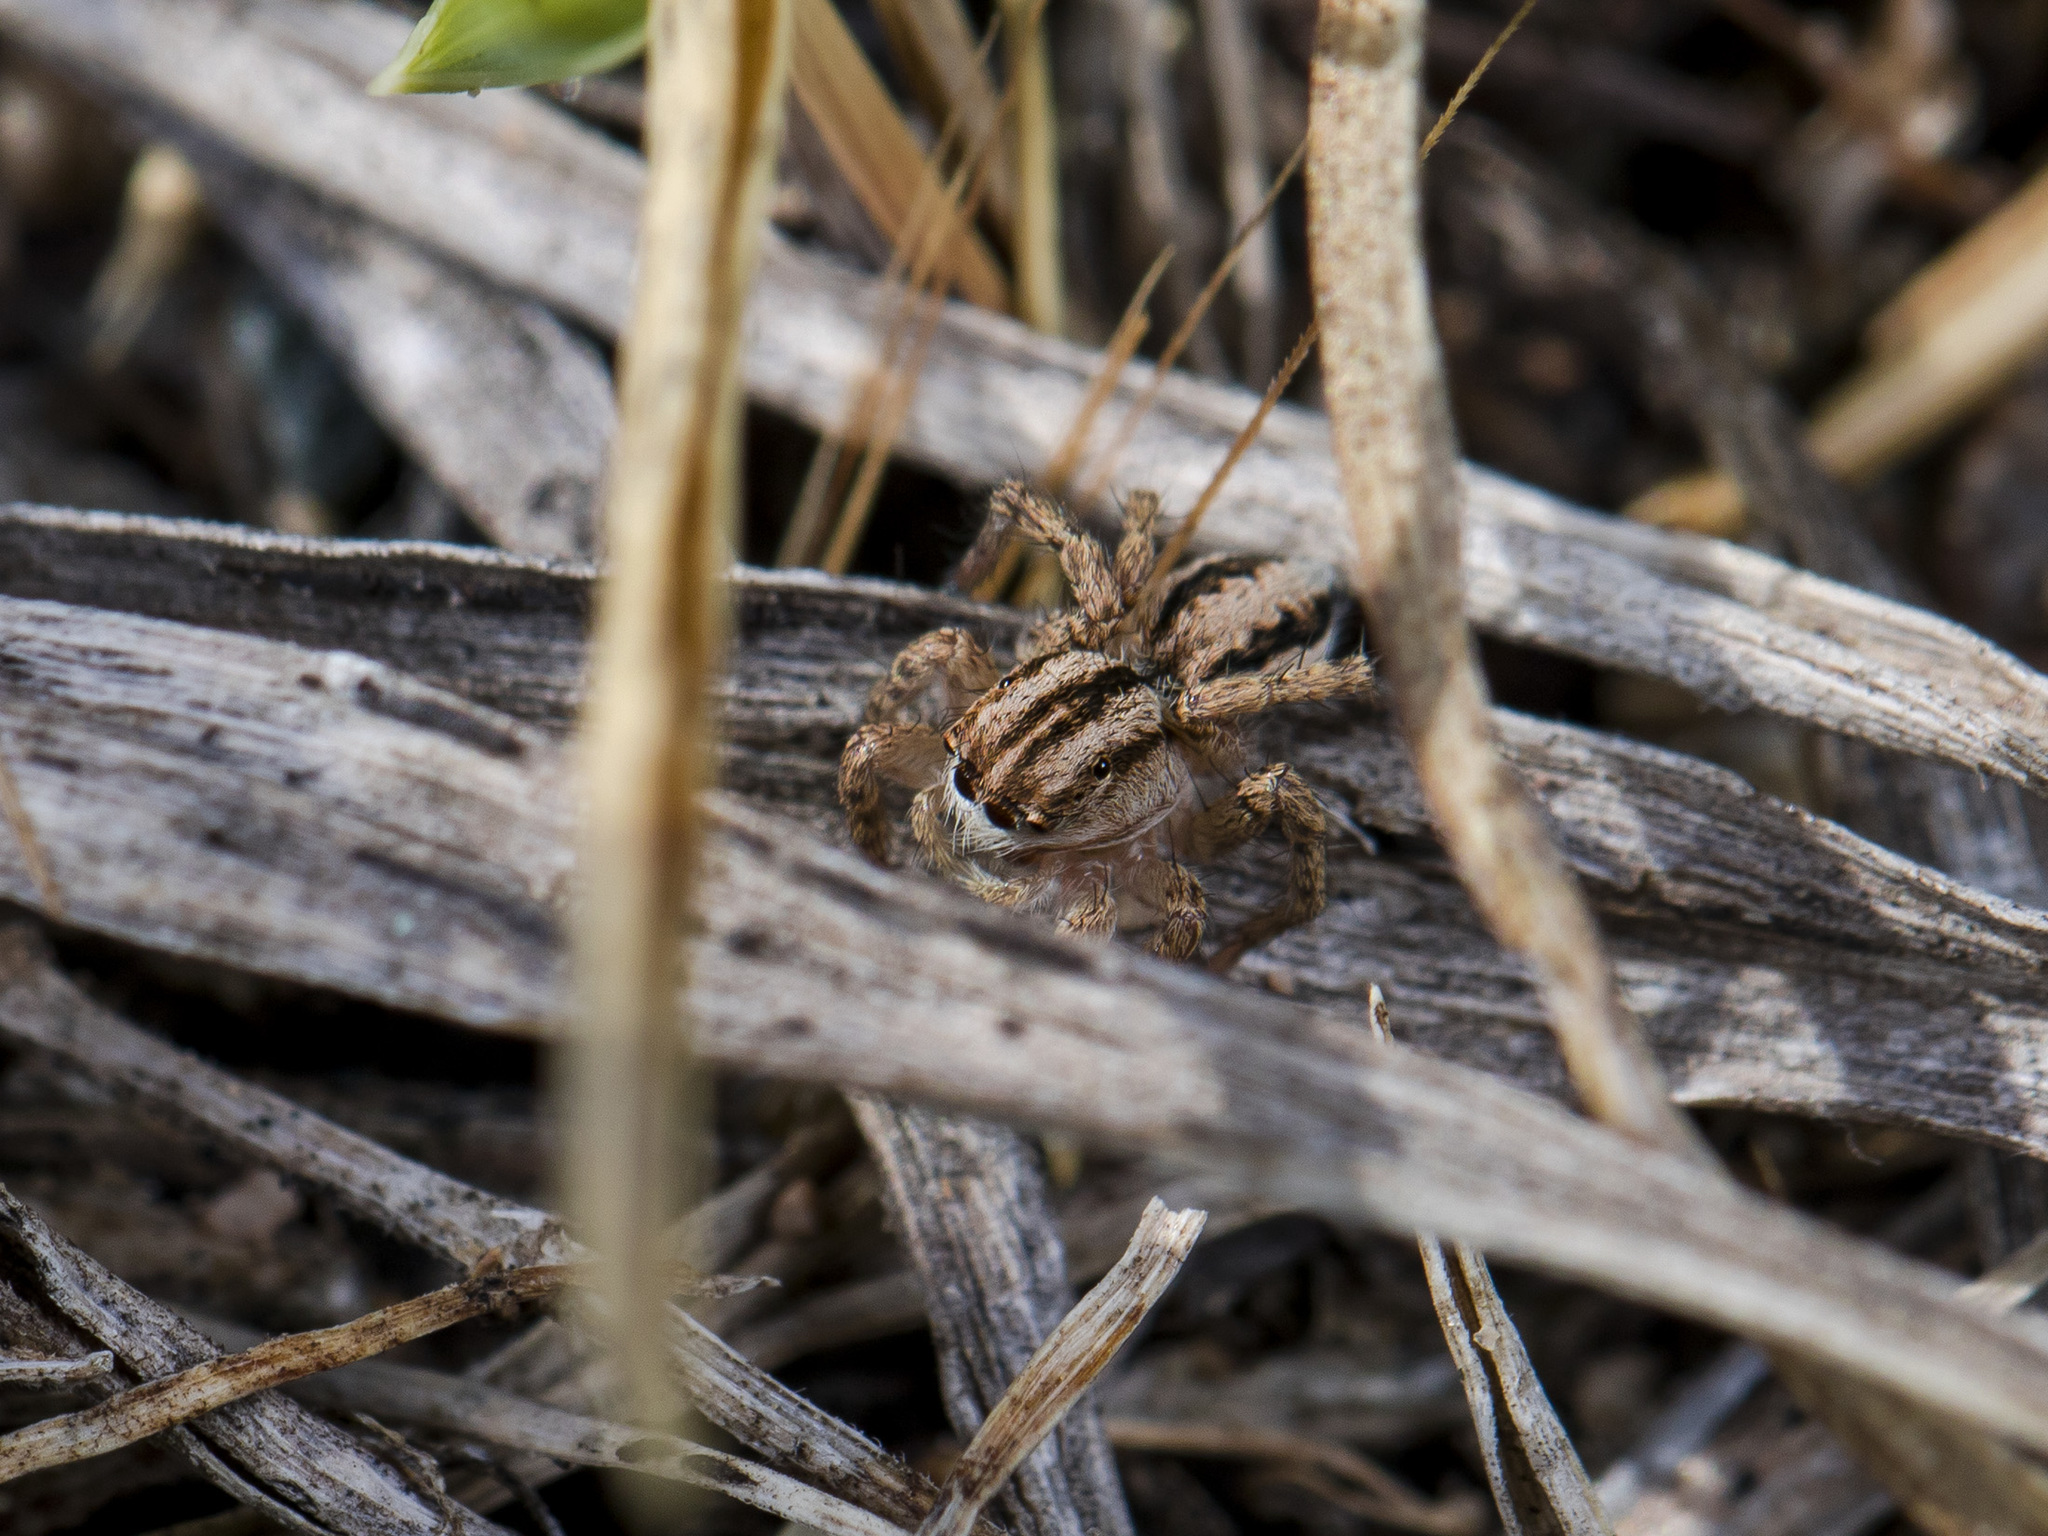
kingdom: Animalia
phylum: Arthropoda
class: Arachnida
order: Araneae
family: Salticidae
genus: Aelurillus
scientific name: Aelurillus m-nigrum
